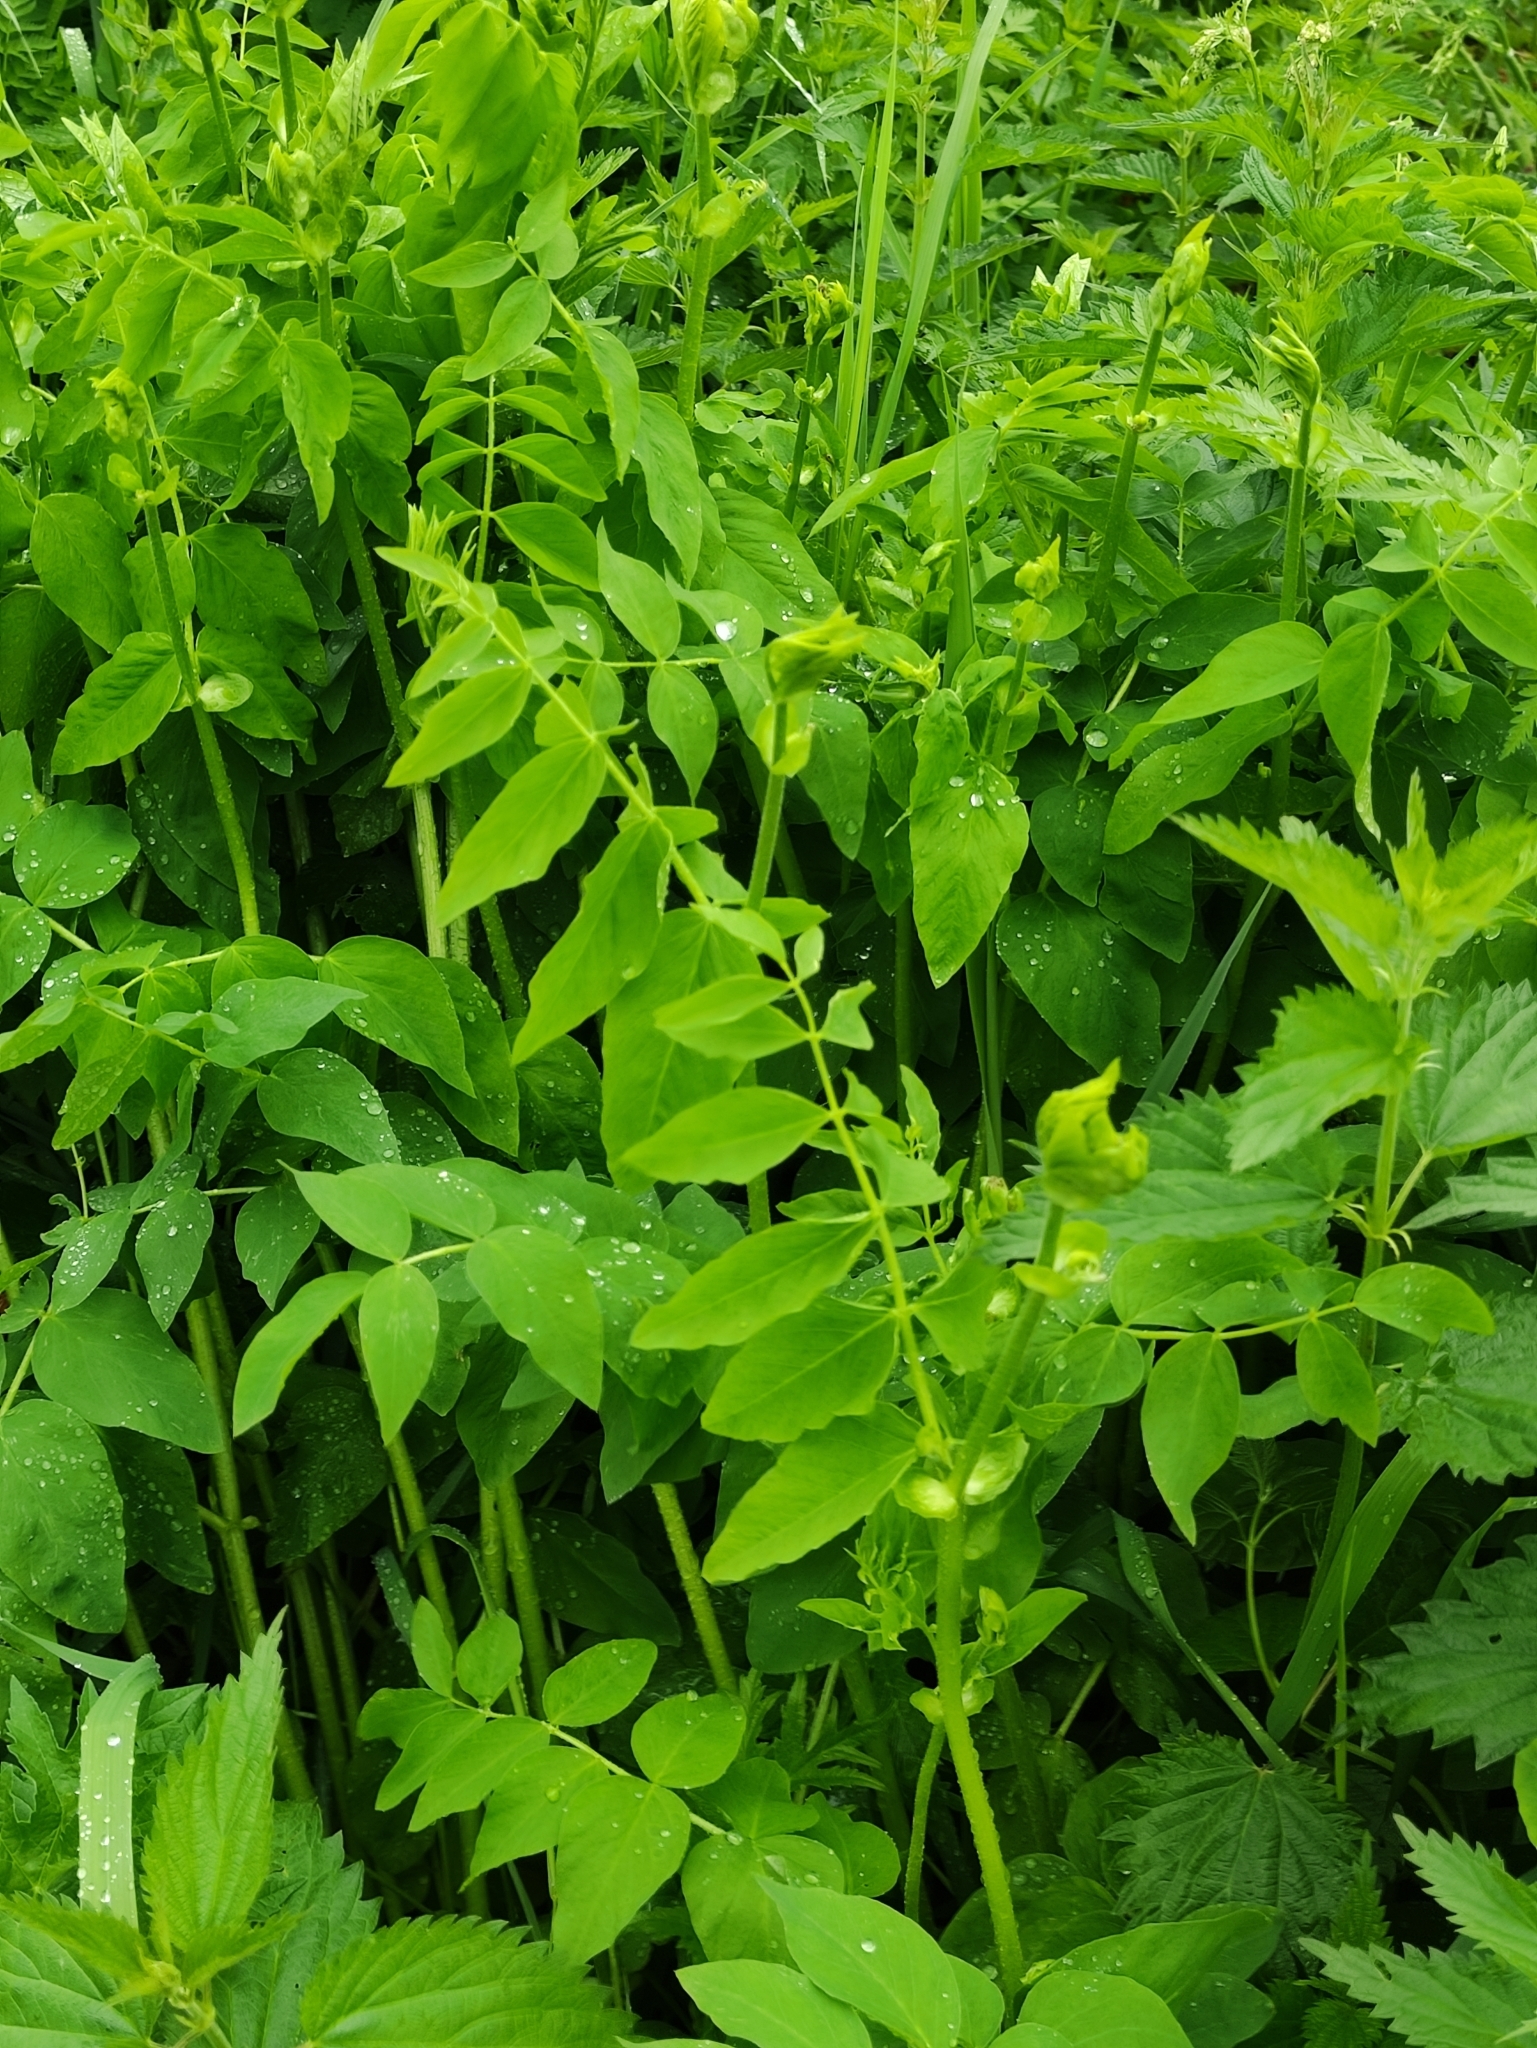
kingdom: Plantae
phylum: Tracheophyta
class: Magnoliopsida
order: Fabales
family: Fabaceae
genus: Galega
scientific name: Galega orientalis
